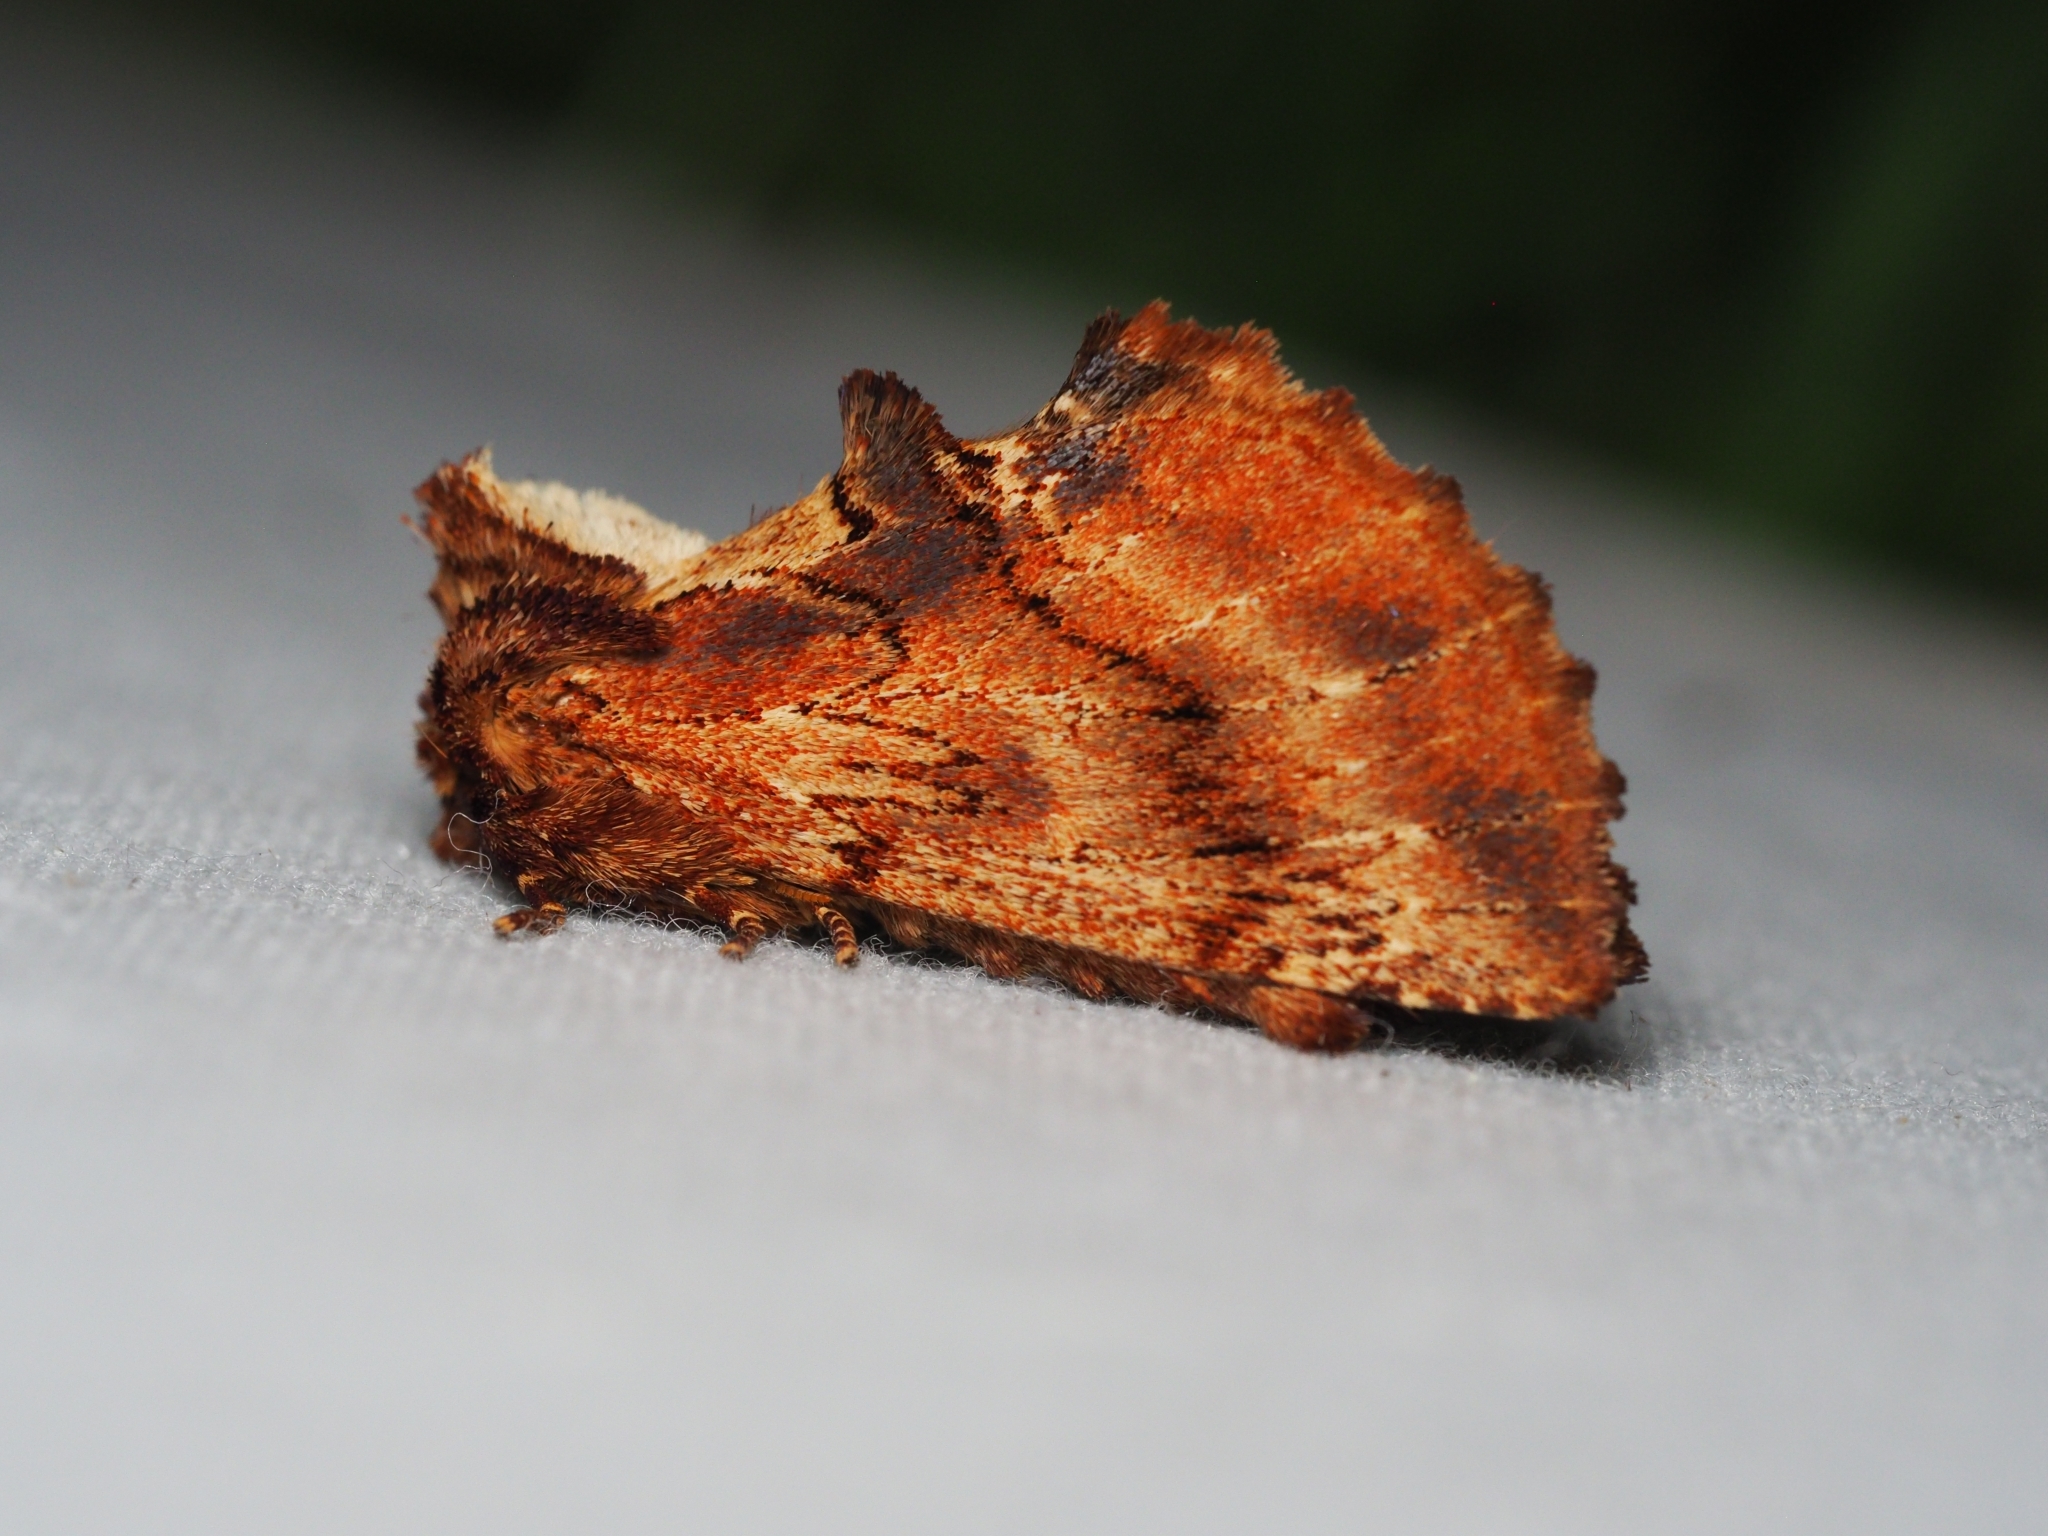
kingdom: Animalia
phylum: Arthropoda
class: Insecta
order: Lepidoptera
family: Notodontidae
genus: Ptilodon
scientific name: Ptilodon capucina
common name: Coxcomb prominent
